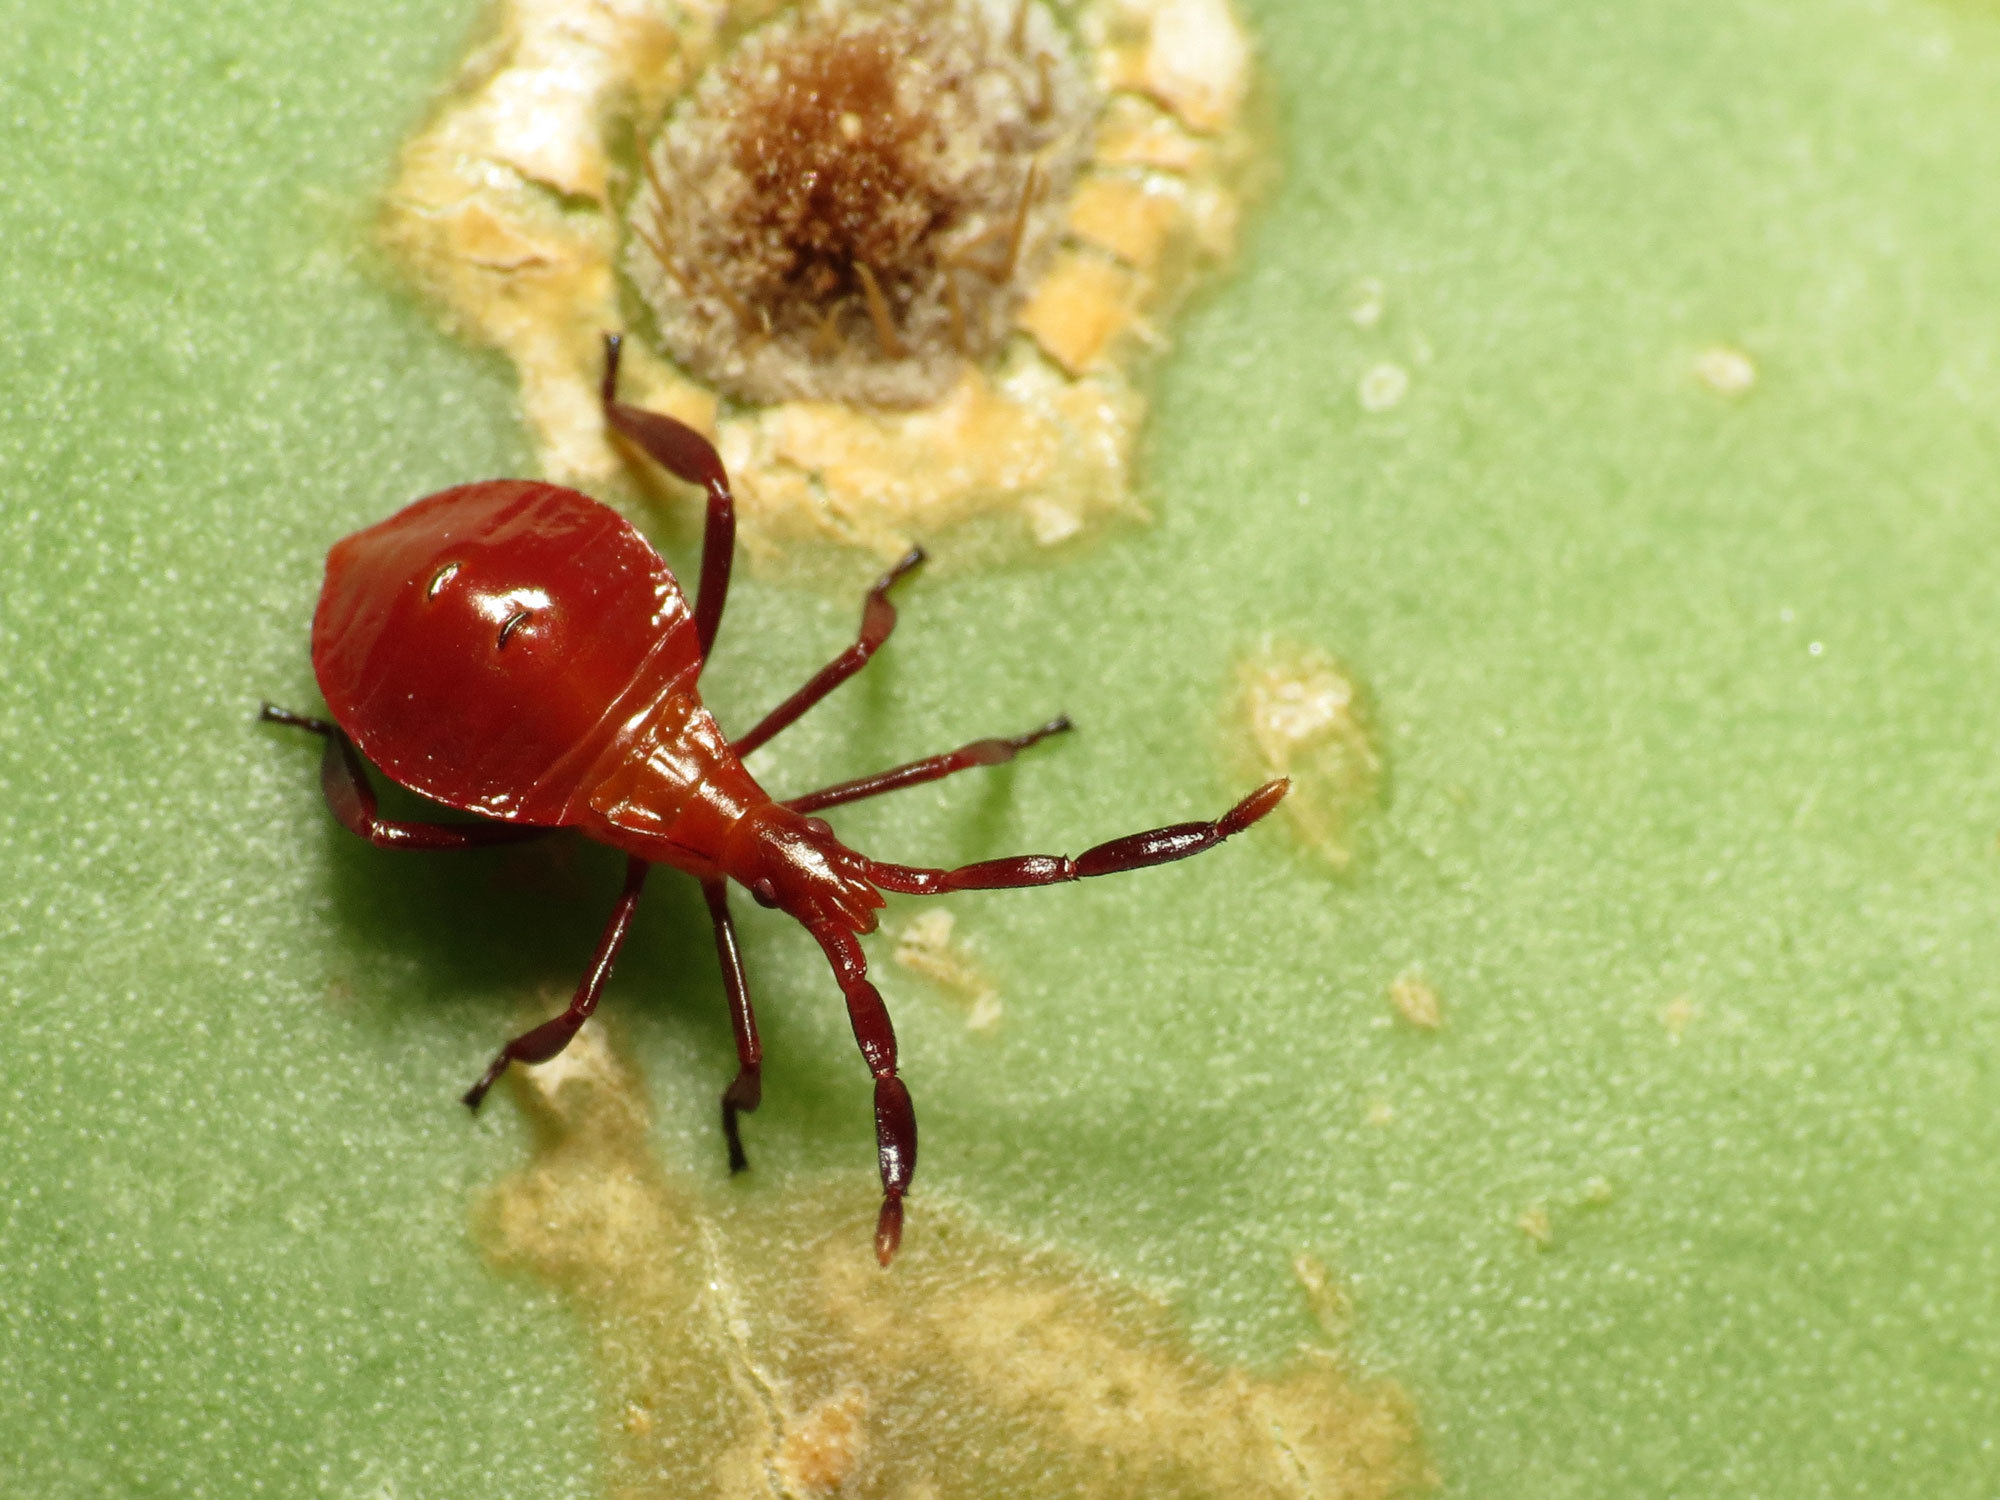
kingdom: Animalia
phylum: Arthropoda
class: Insecta
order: Hemiptera
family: Coreidae
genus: Chelinidea
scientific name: Chelinidea vittiger
